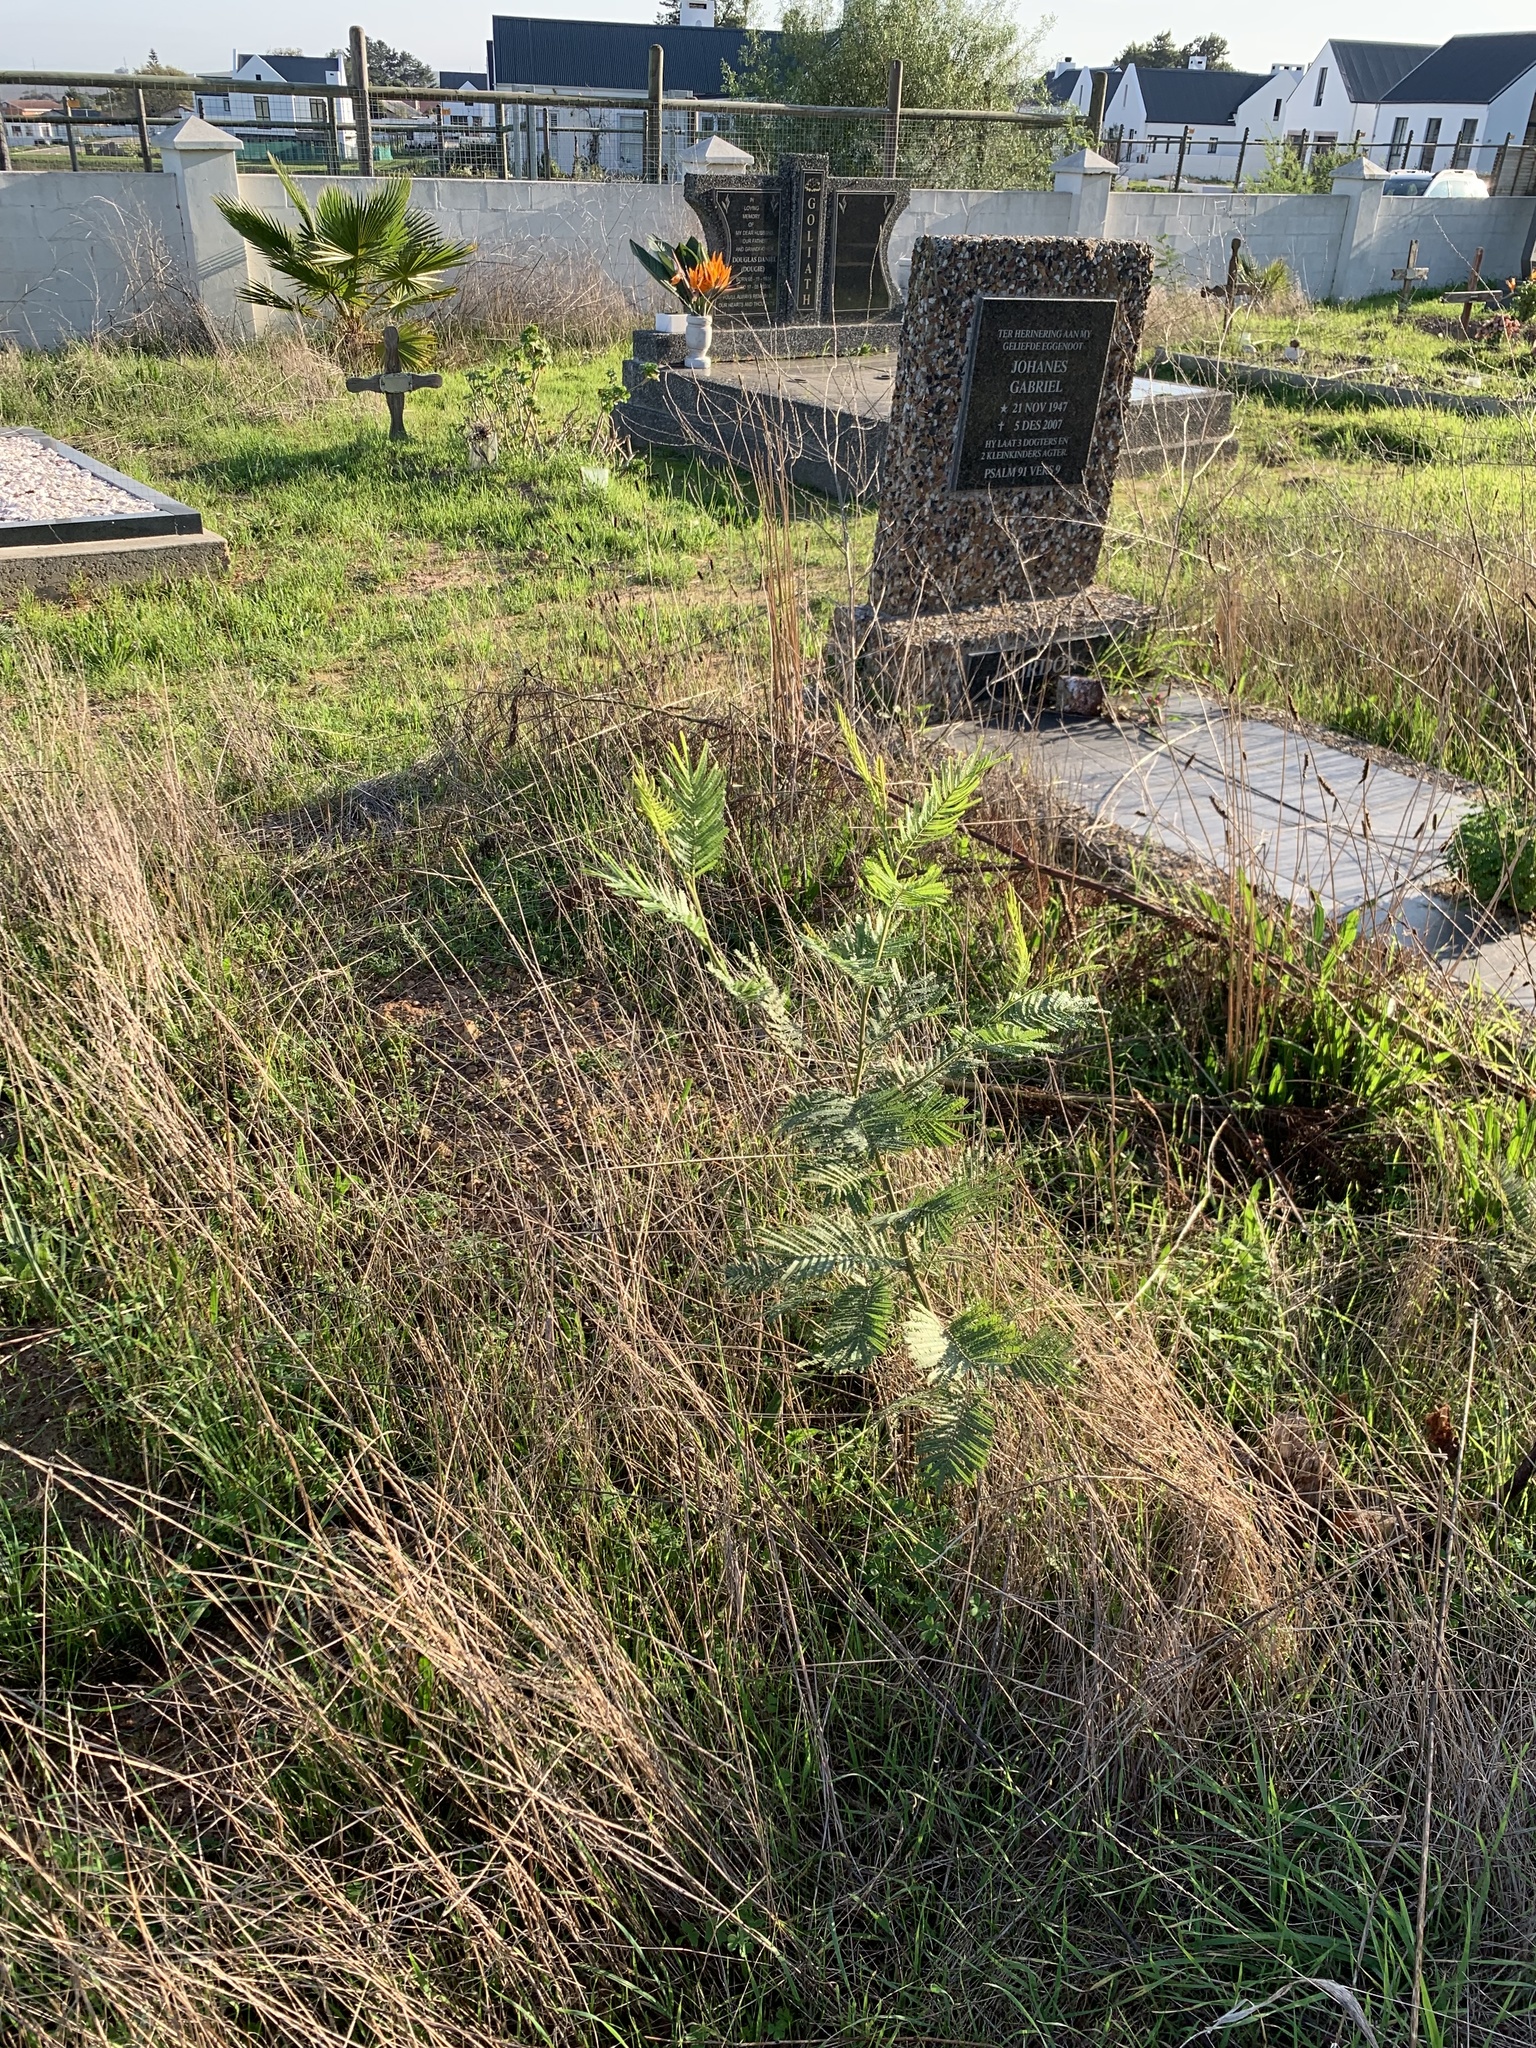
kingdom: Plantae
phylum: Tracheophyta
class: Magnoliopsida
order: Fabales
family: Fabaceae
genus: Acacia
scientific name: Acacia mearnsii
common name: Black wattle
